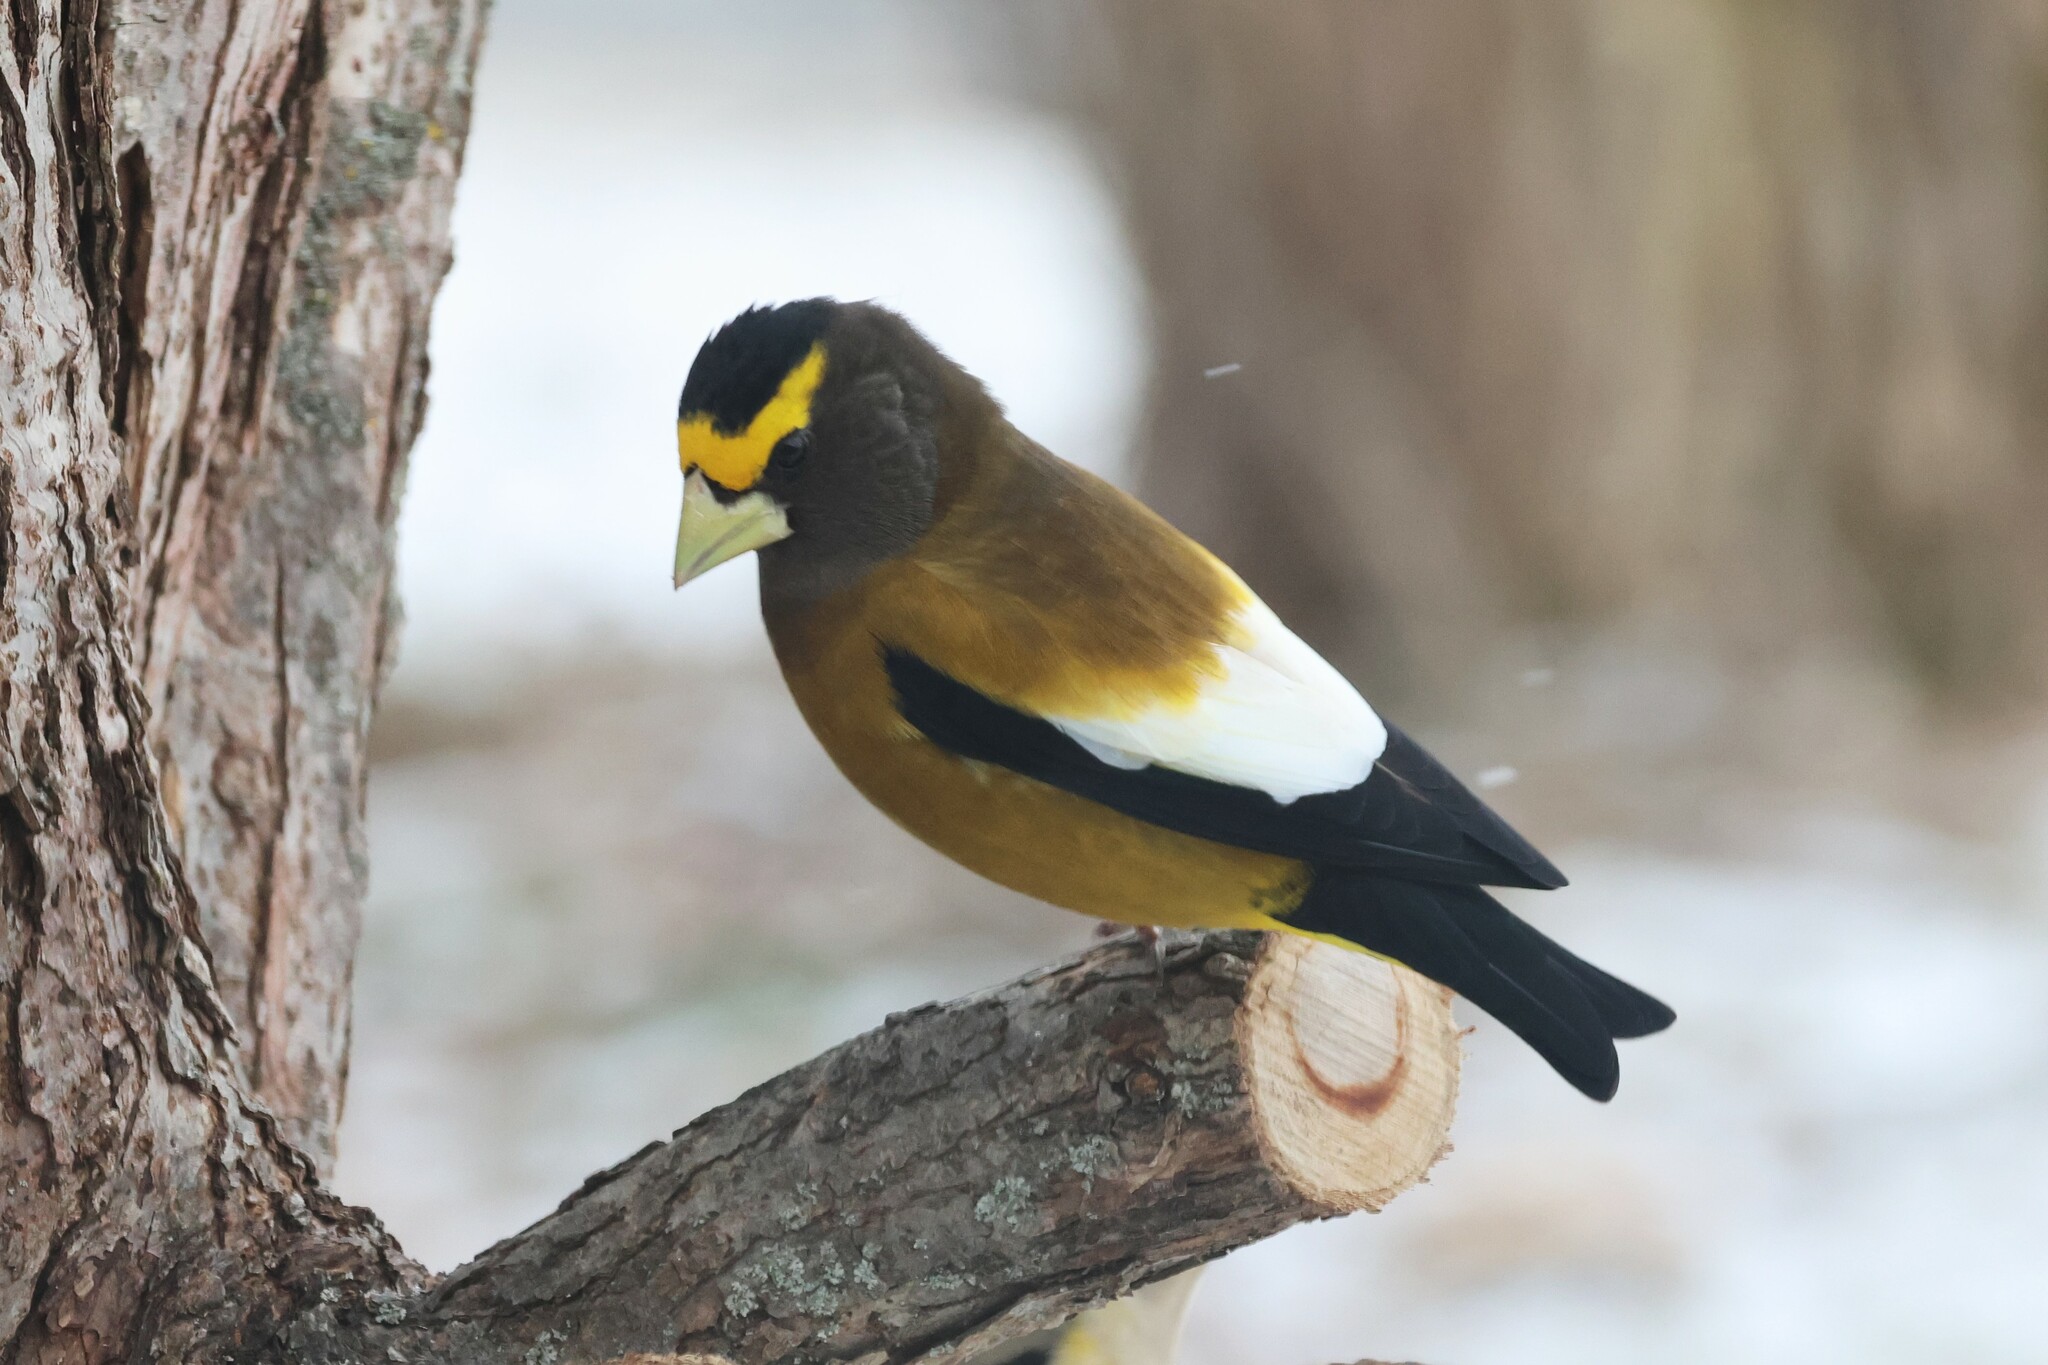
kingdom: Animalia
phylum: Chordata
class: Aves
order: Passeriformes
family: Fringillidae
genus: Hesperiphona
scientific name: Hesperiphona vespertina
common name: Evening grosbeak
